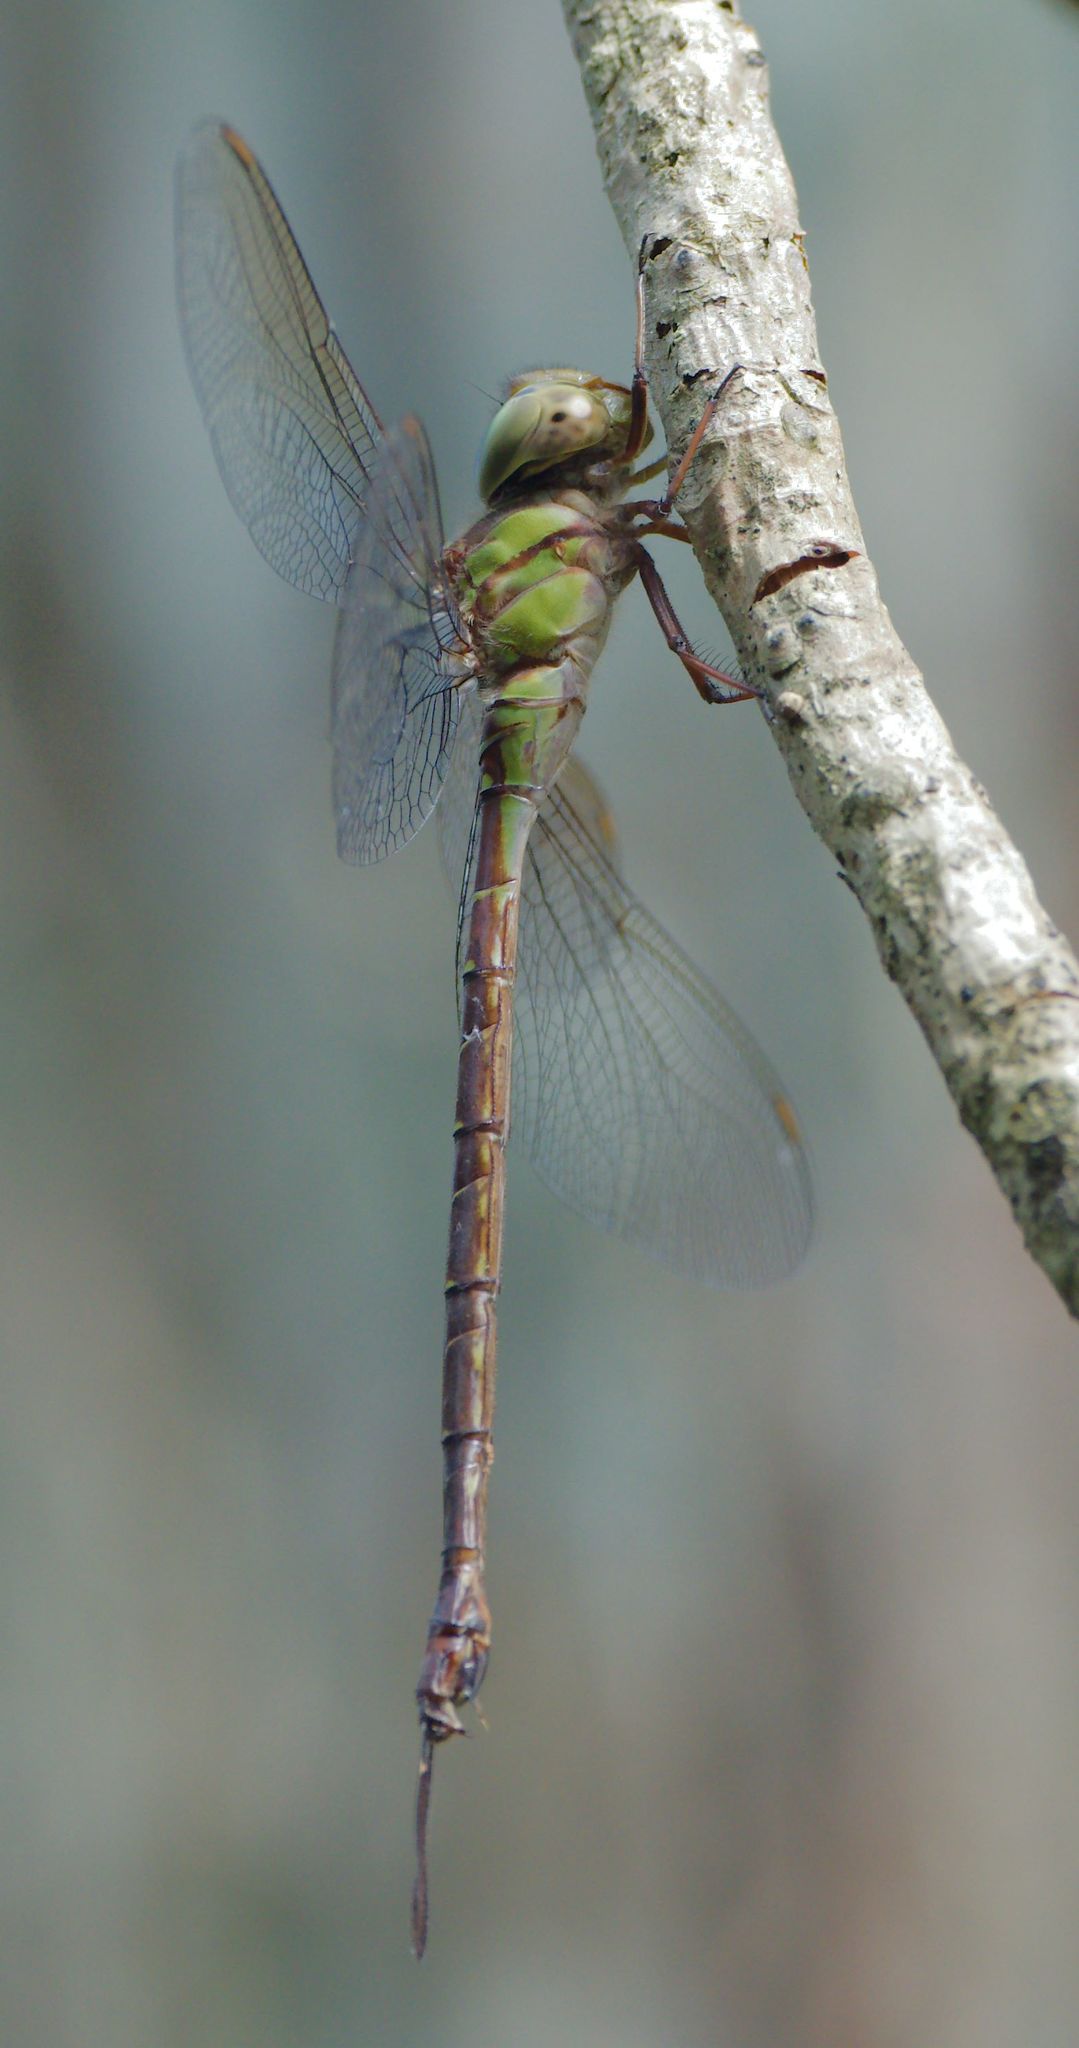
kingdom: Animalia
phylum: Arthropoda
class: Insecta
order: Odonata
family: Aeshnidae
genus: Triacanthagyna
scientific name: Triacanthagyna trifida
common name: Phantom darner
